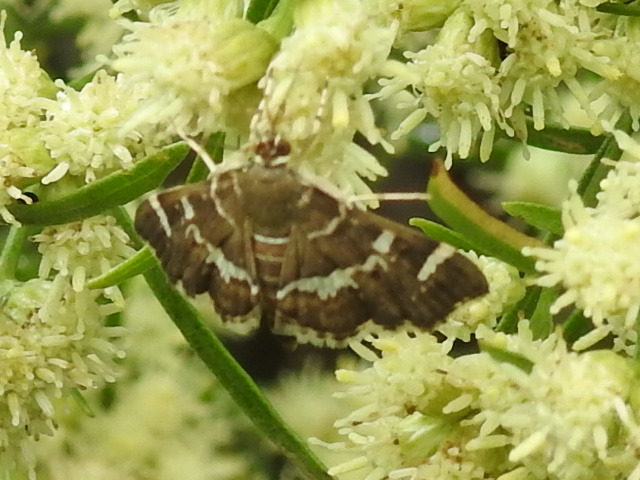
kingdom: Animalia
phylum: Arthropoda
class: Insecta
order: Lepidoptera
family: Crambidae
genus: Hymenia
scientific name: Hymenia perspectalis
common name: Spotted beet webworm
